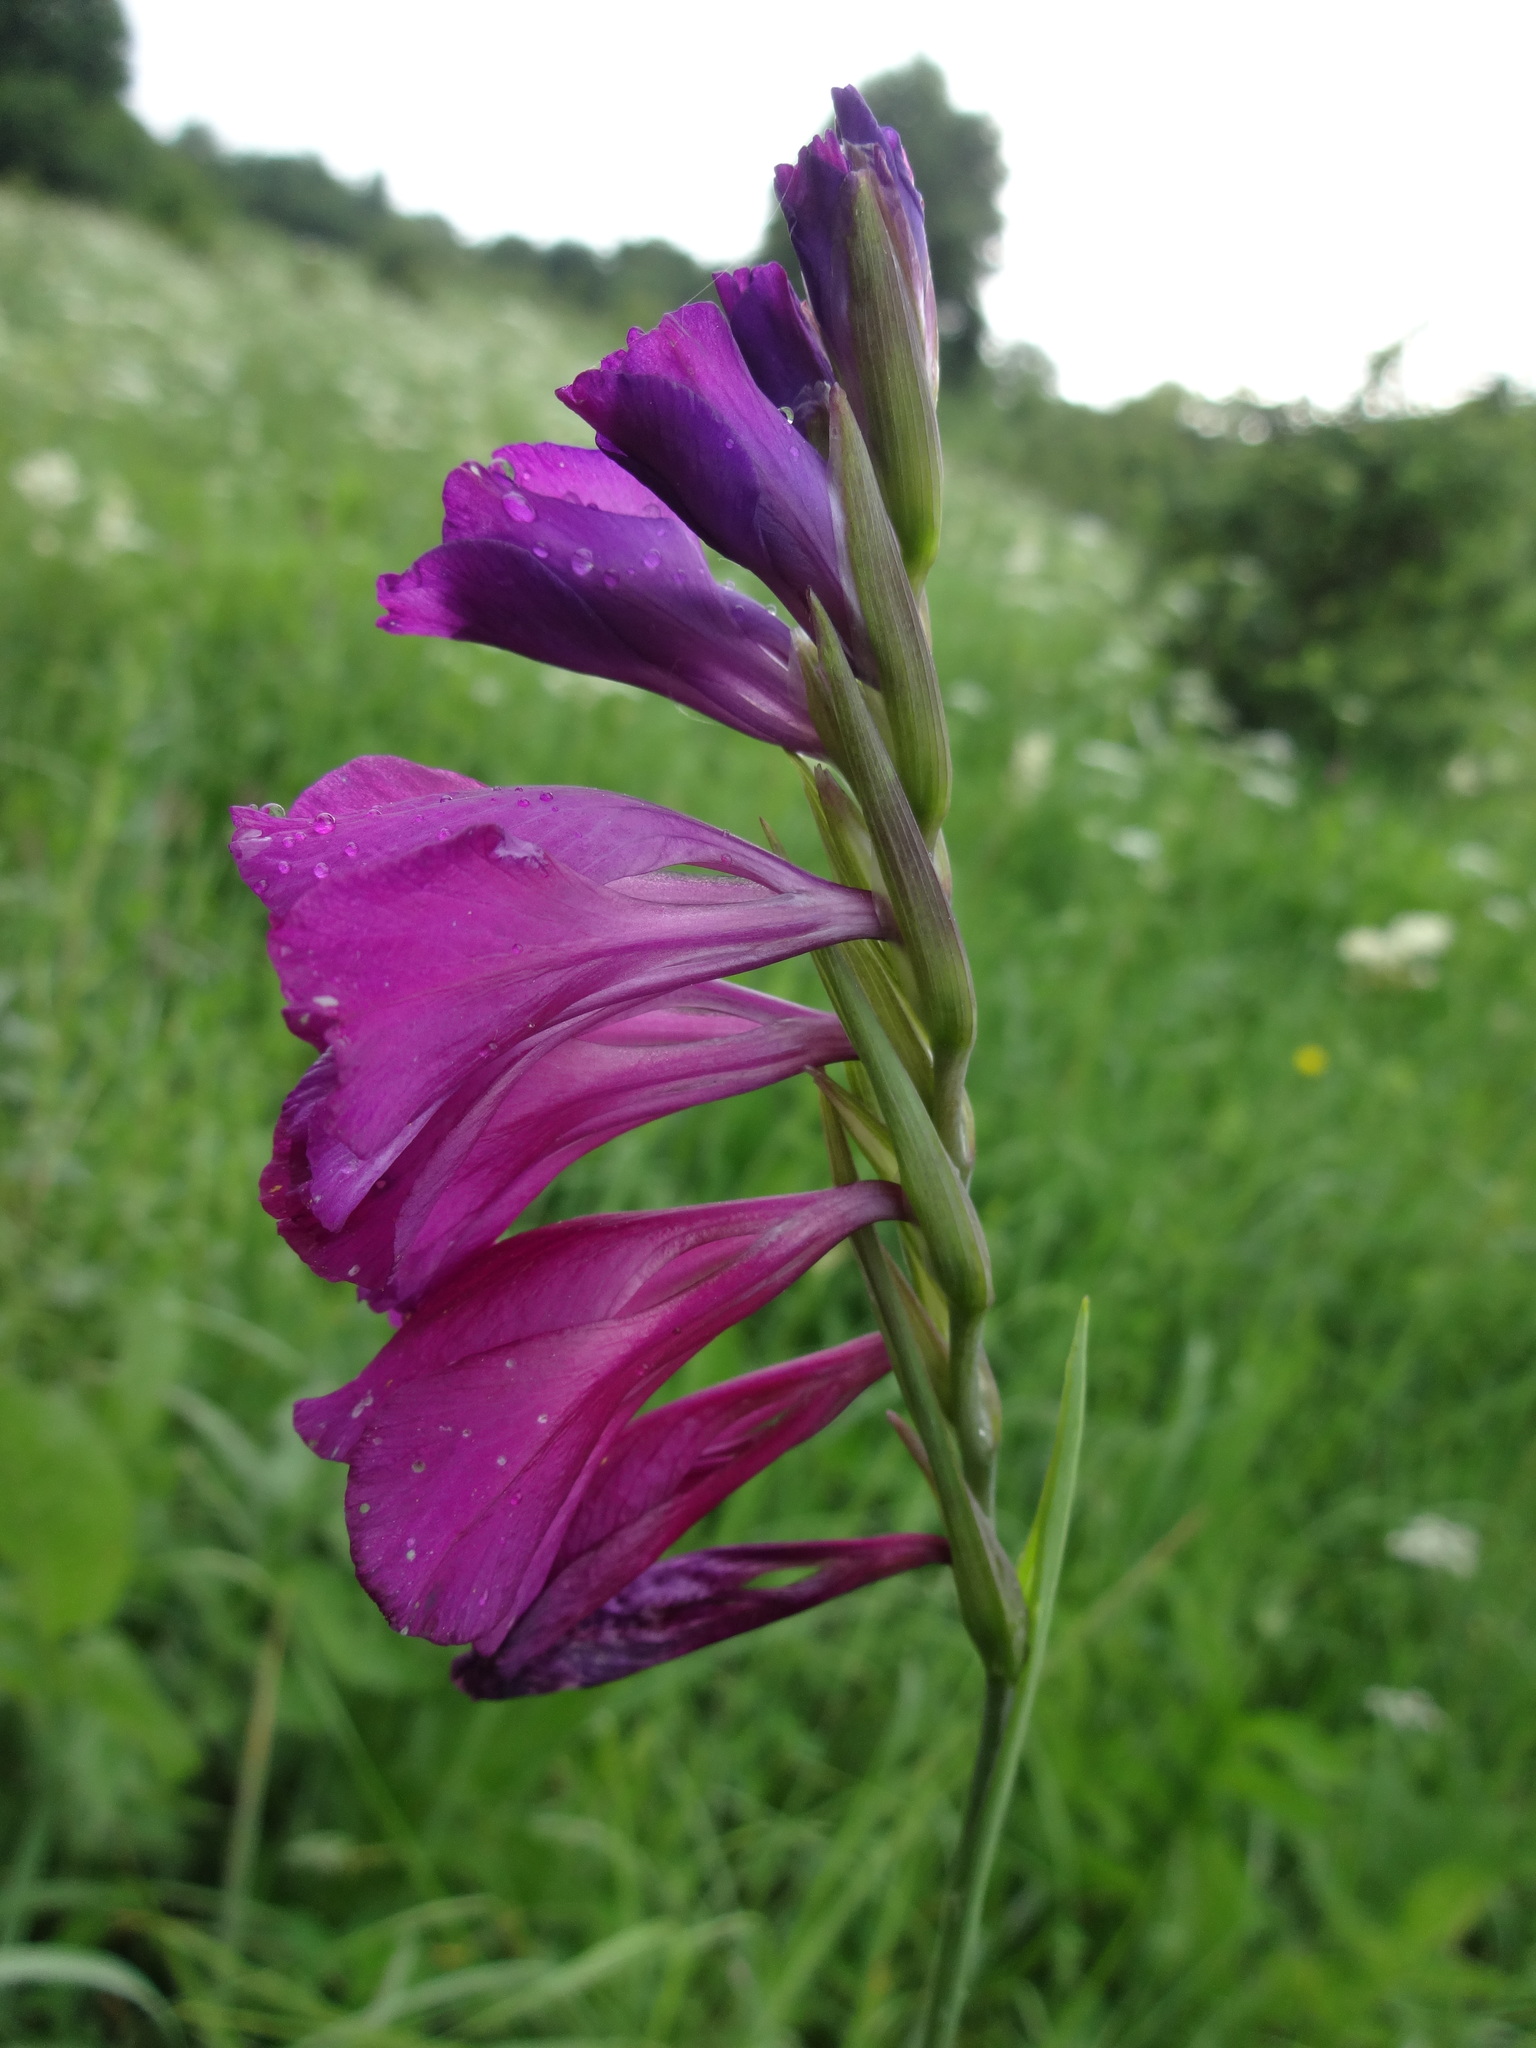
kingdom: Plantae
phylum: Tracheophyta
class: Liliopsida
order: Asparagales
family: Iridaceae
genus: Gladiolus
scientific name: Gladiolus tenuis
